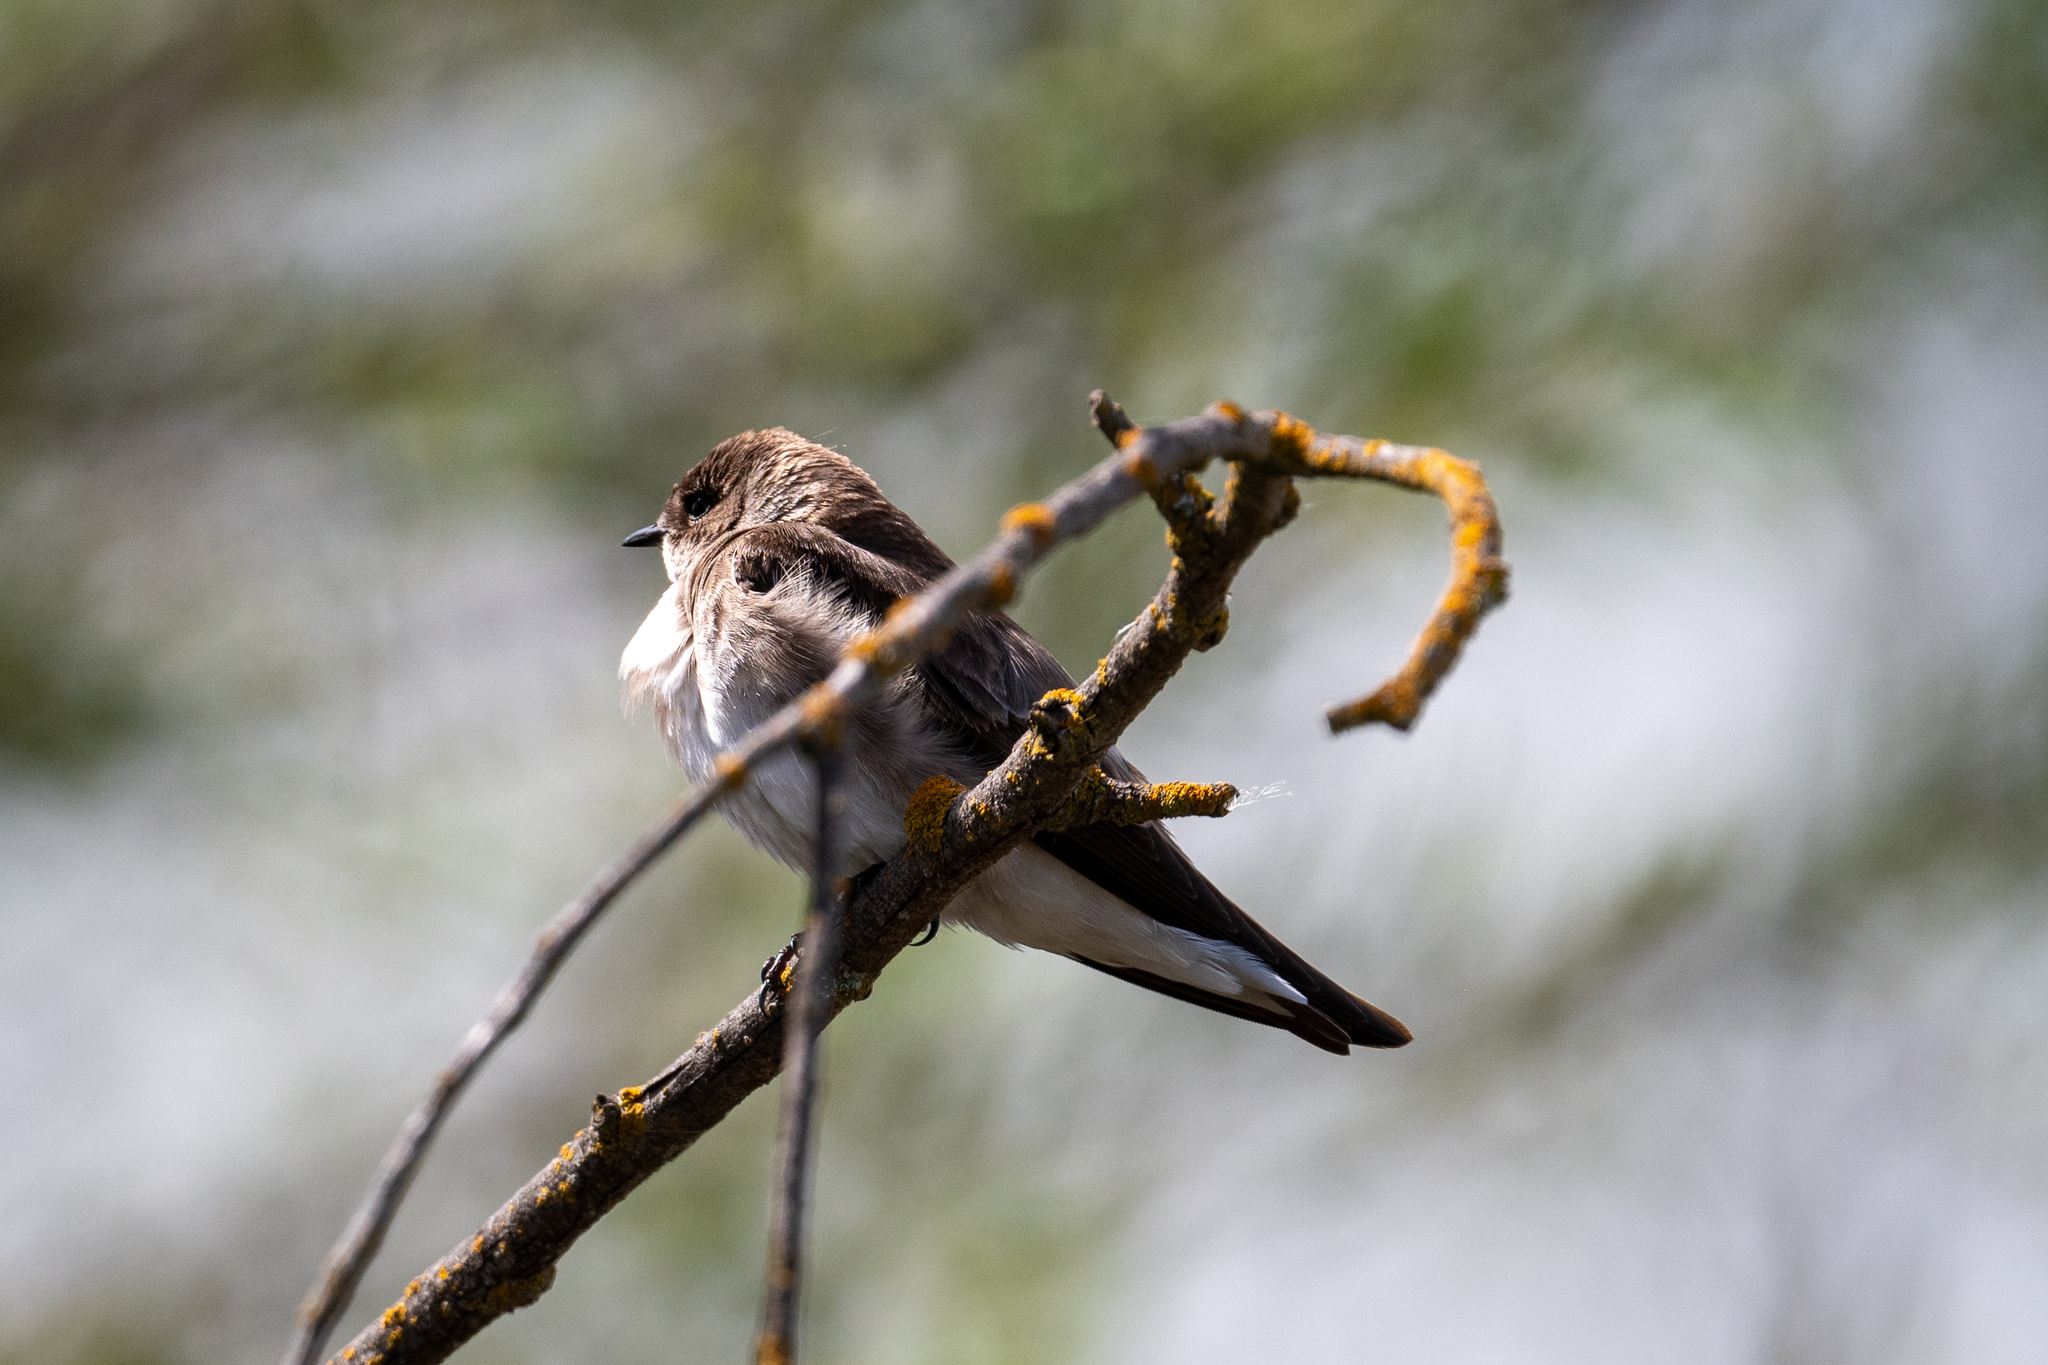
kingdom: Animalia
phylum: Chordata
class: Aves
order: Passeriformes
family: Hirundinidae
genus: Stelgidopteryx
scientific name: Stelgidopteryx serripennis
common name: Northern rough-winged swallow
